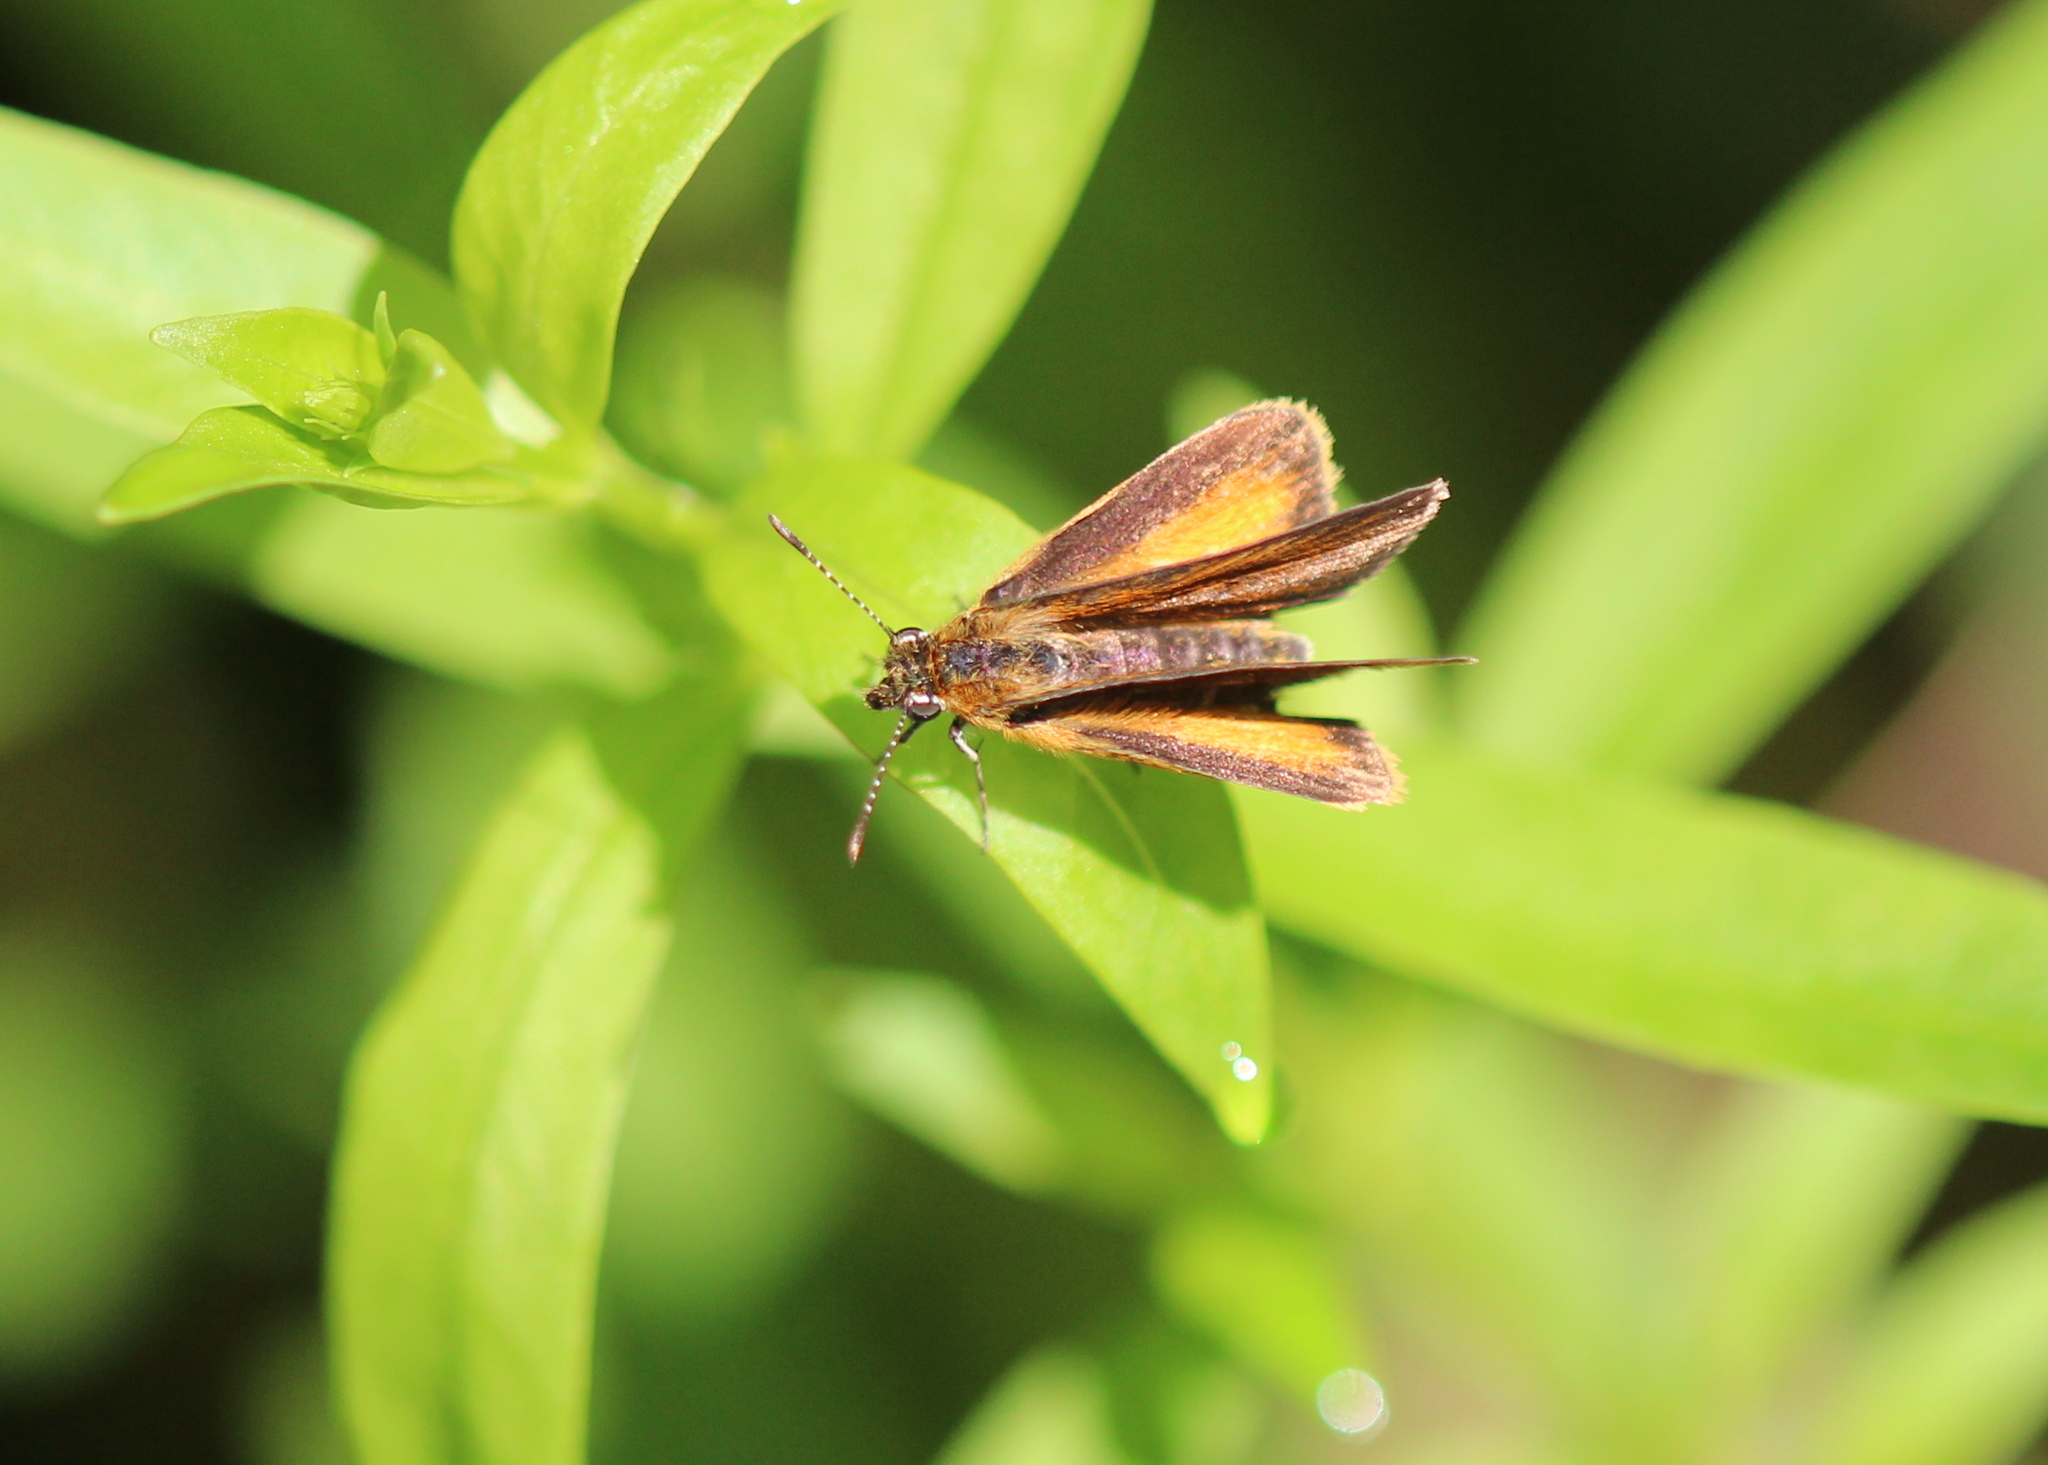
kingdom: Animalia
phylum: Arthropoda
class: Insecta
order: Lepidoptera
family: Hesperiidae
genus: Ancyloxypha
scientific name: Ancyloxypha numitor
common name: Least skipper
